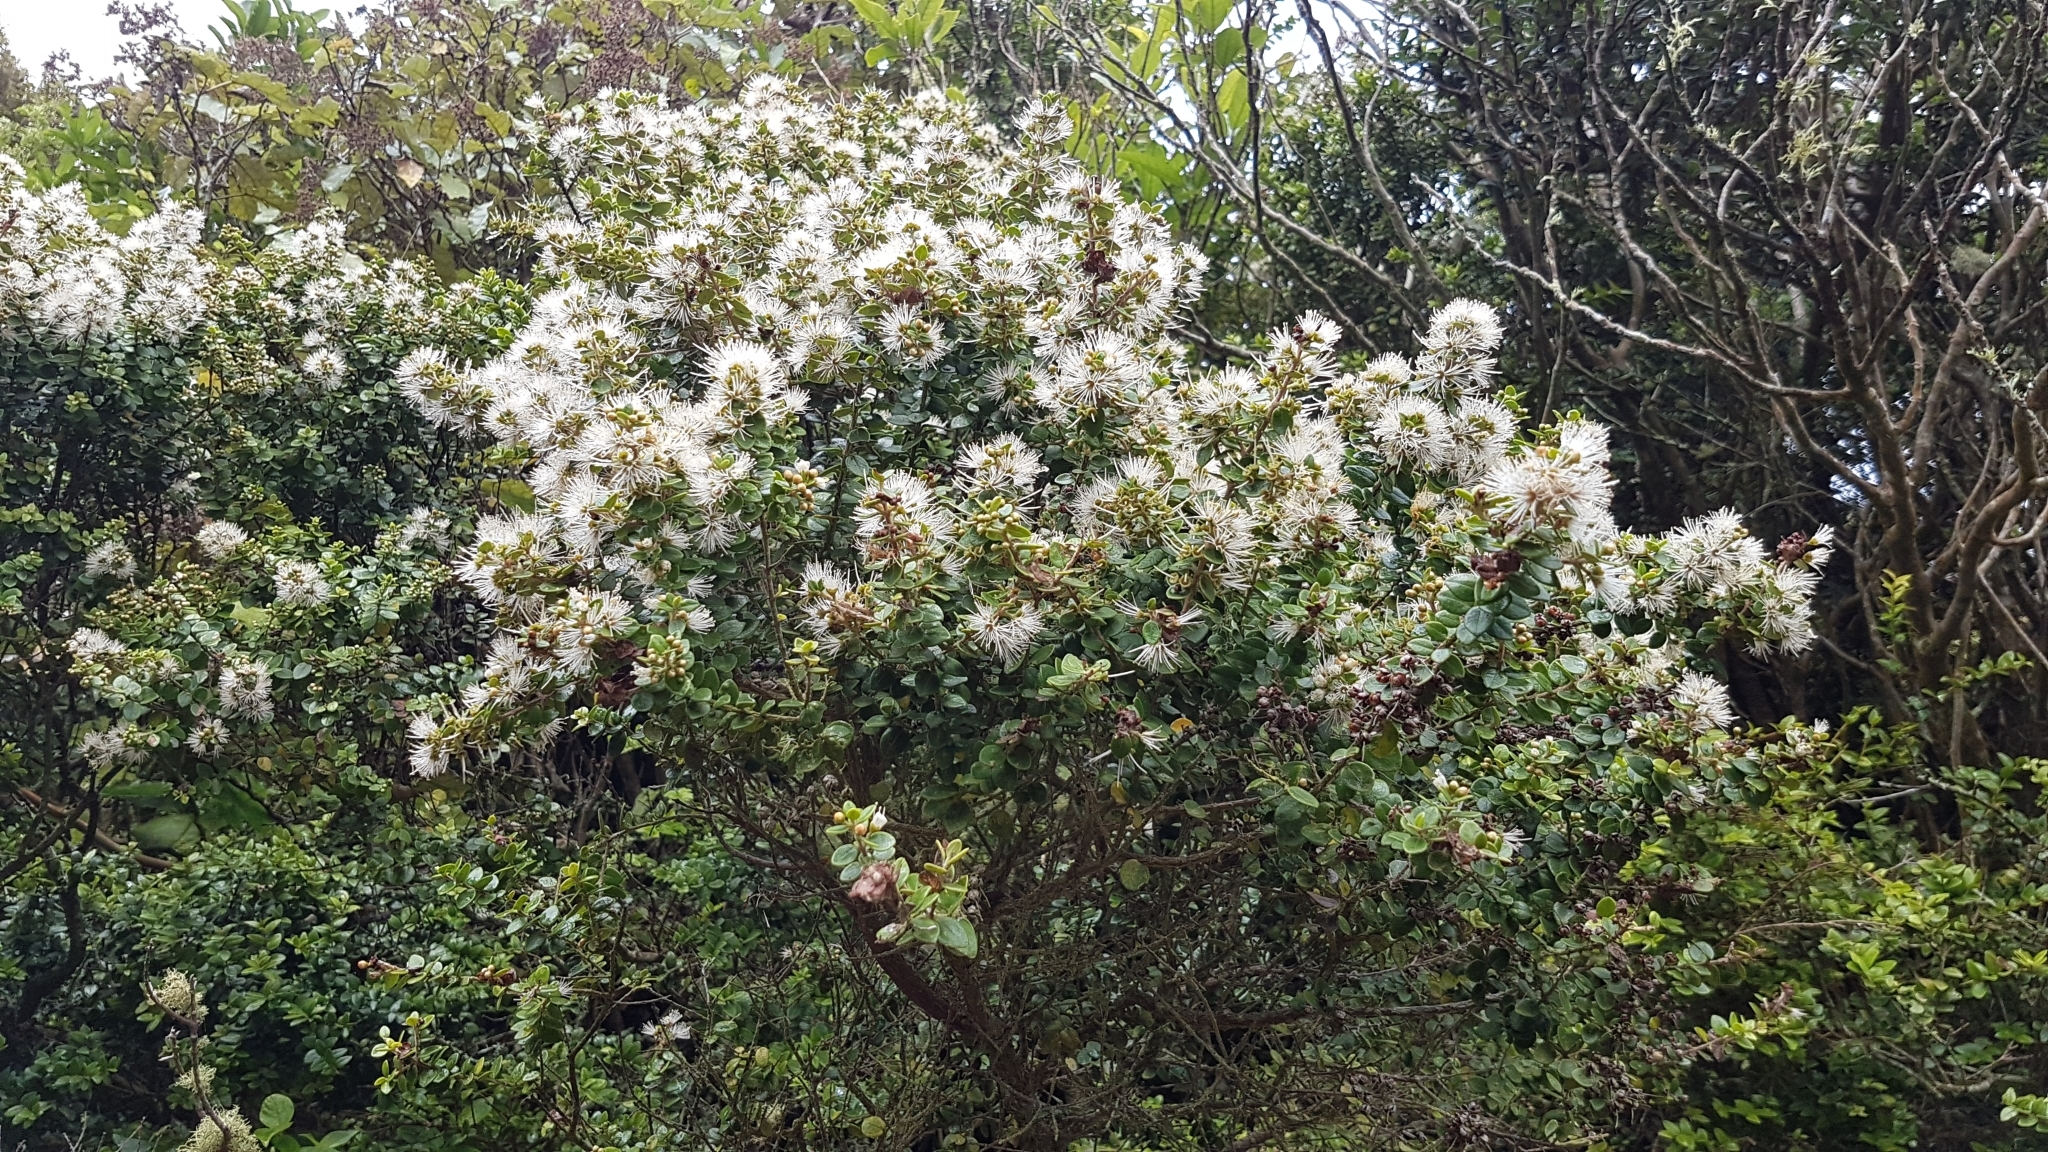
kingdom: Plantae
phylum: Tracheophyta
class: Magnoliopsida
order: Myrtales
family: Myrtaceae
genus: Metrosideros
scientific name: Metrosideros diffusa
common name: Small ratavine
